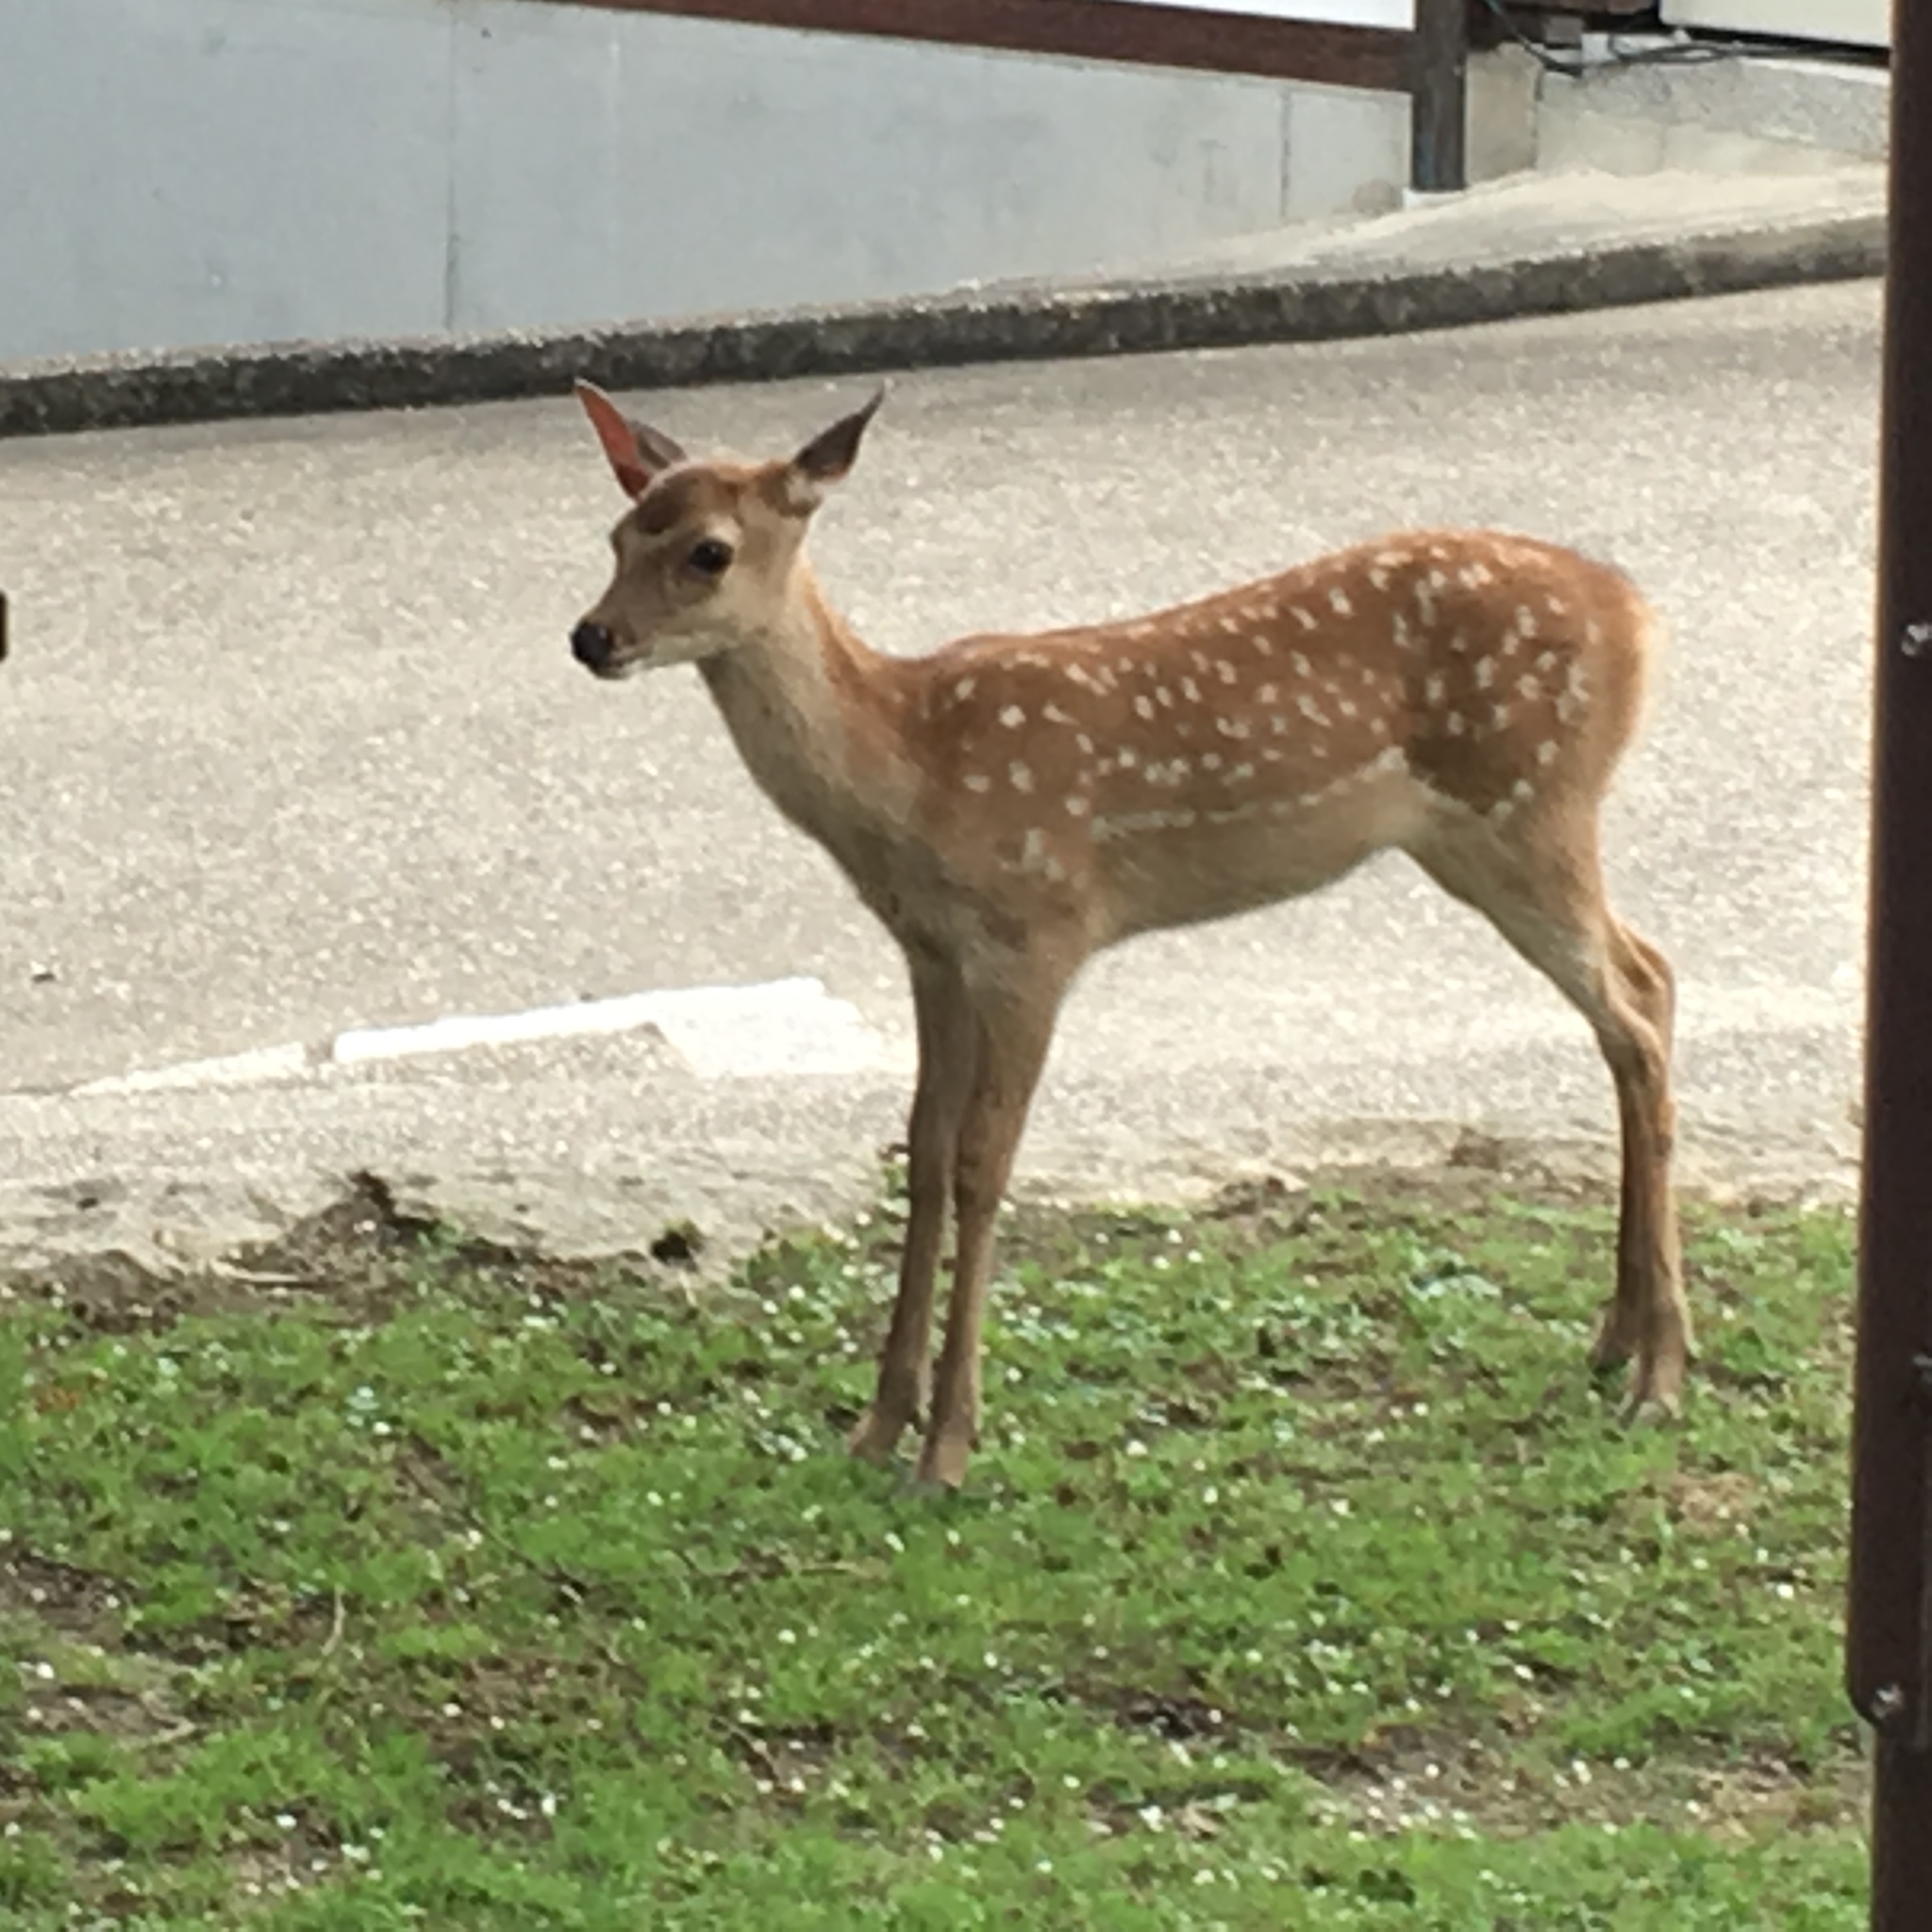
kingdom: Animalia
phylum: Chordata
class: Mammalia
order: Artiodactyla
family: Cervidae
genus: Cervus
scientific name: Cervus nippon
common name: Sika deer
